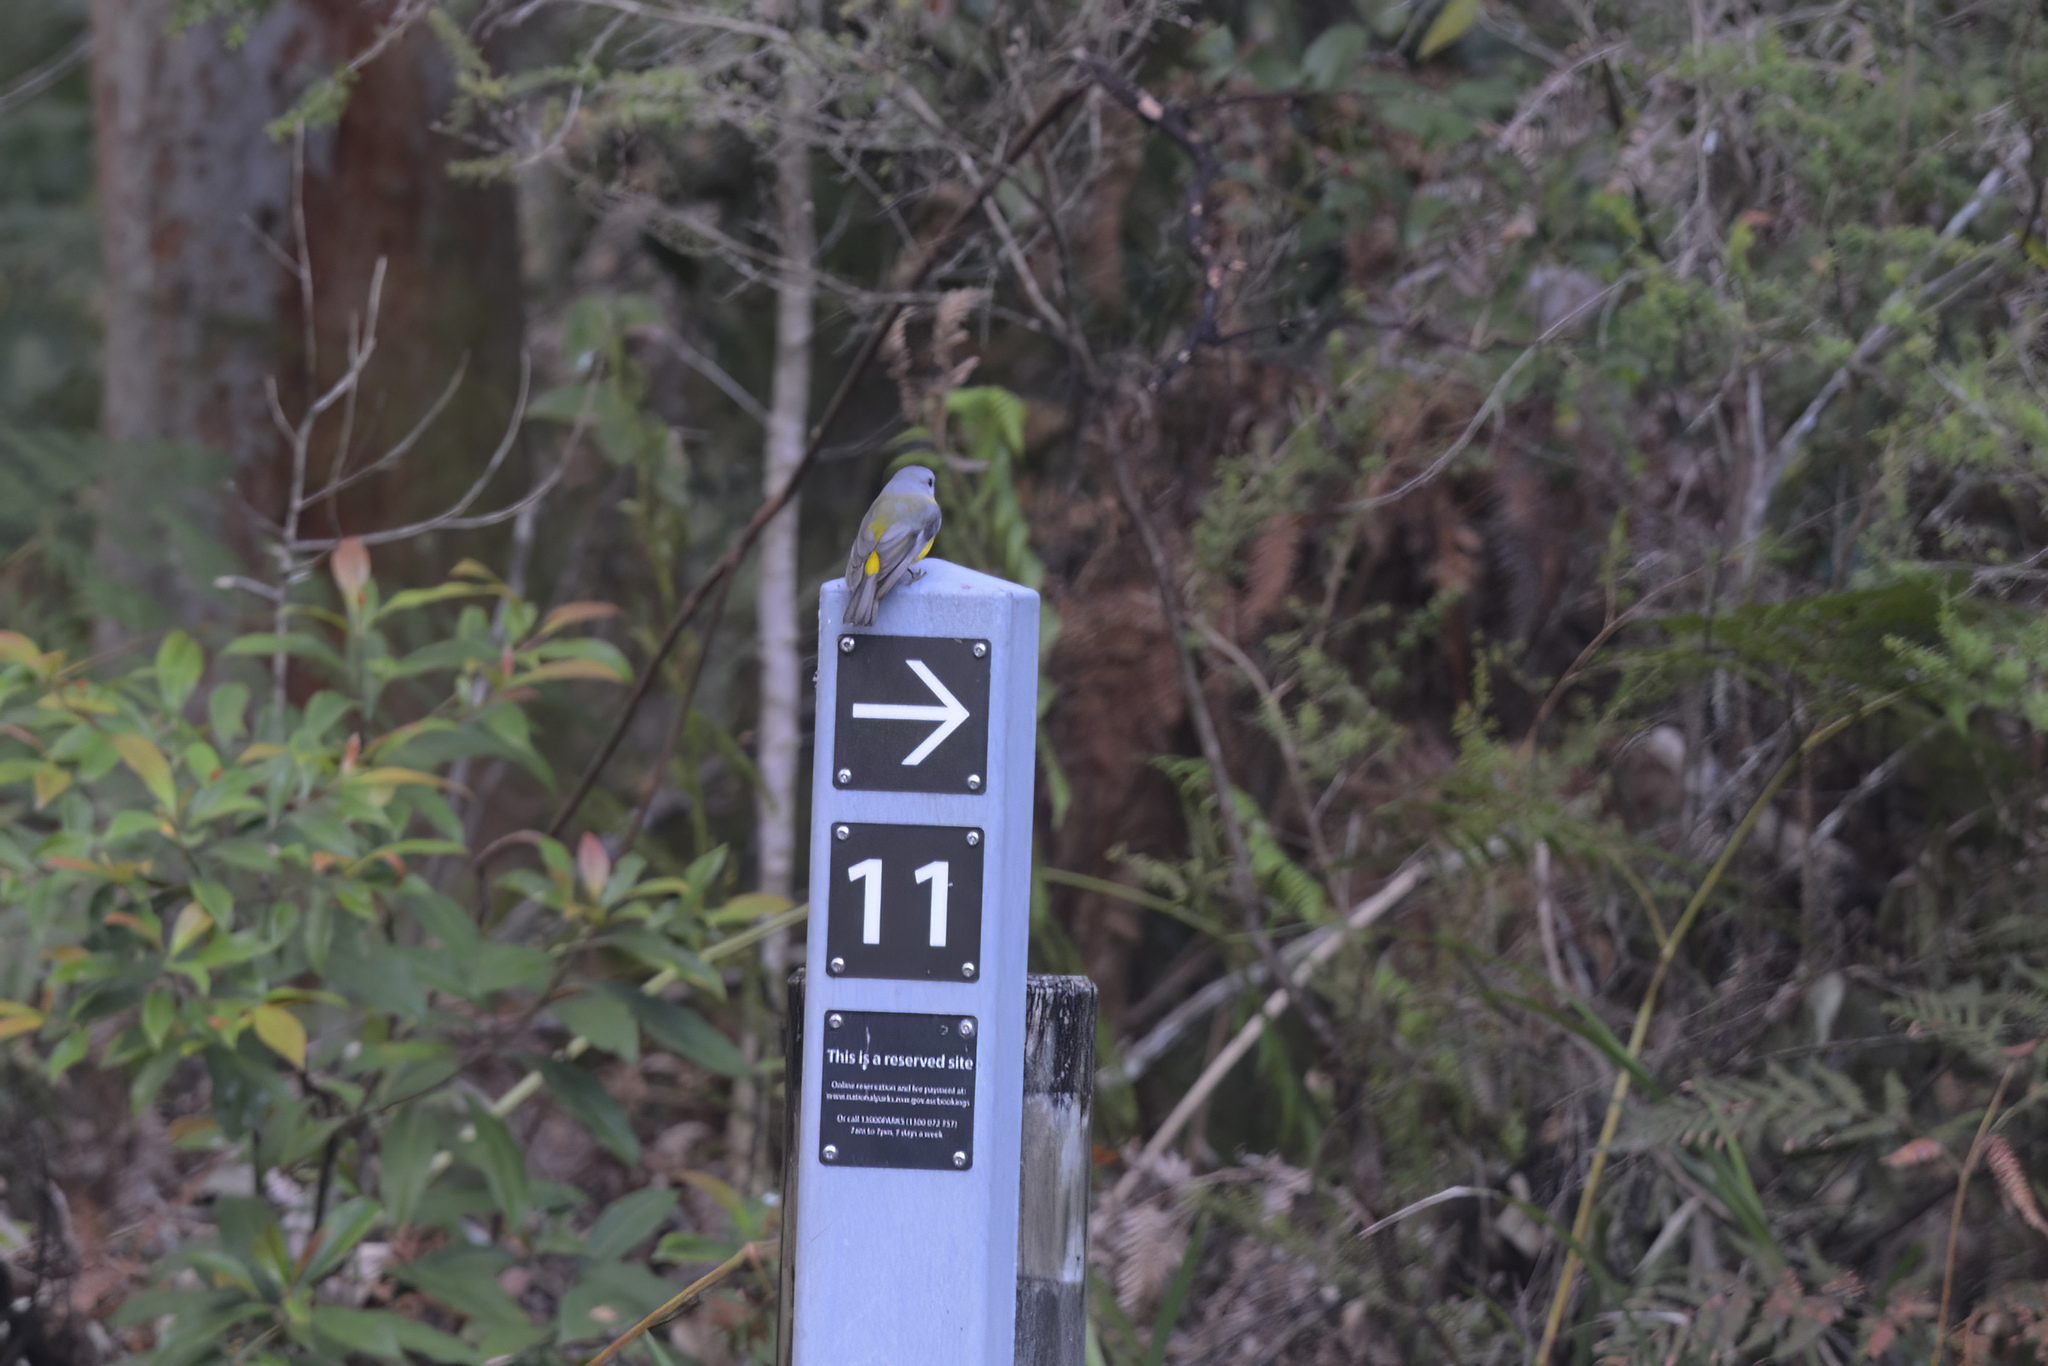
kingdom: Animalia
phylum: Chordata
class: Aves
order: Passeriformes
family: Petroicidae
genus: Eopsaltria
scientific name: Eopsaltria australis
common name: Eastern yellow robin
